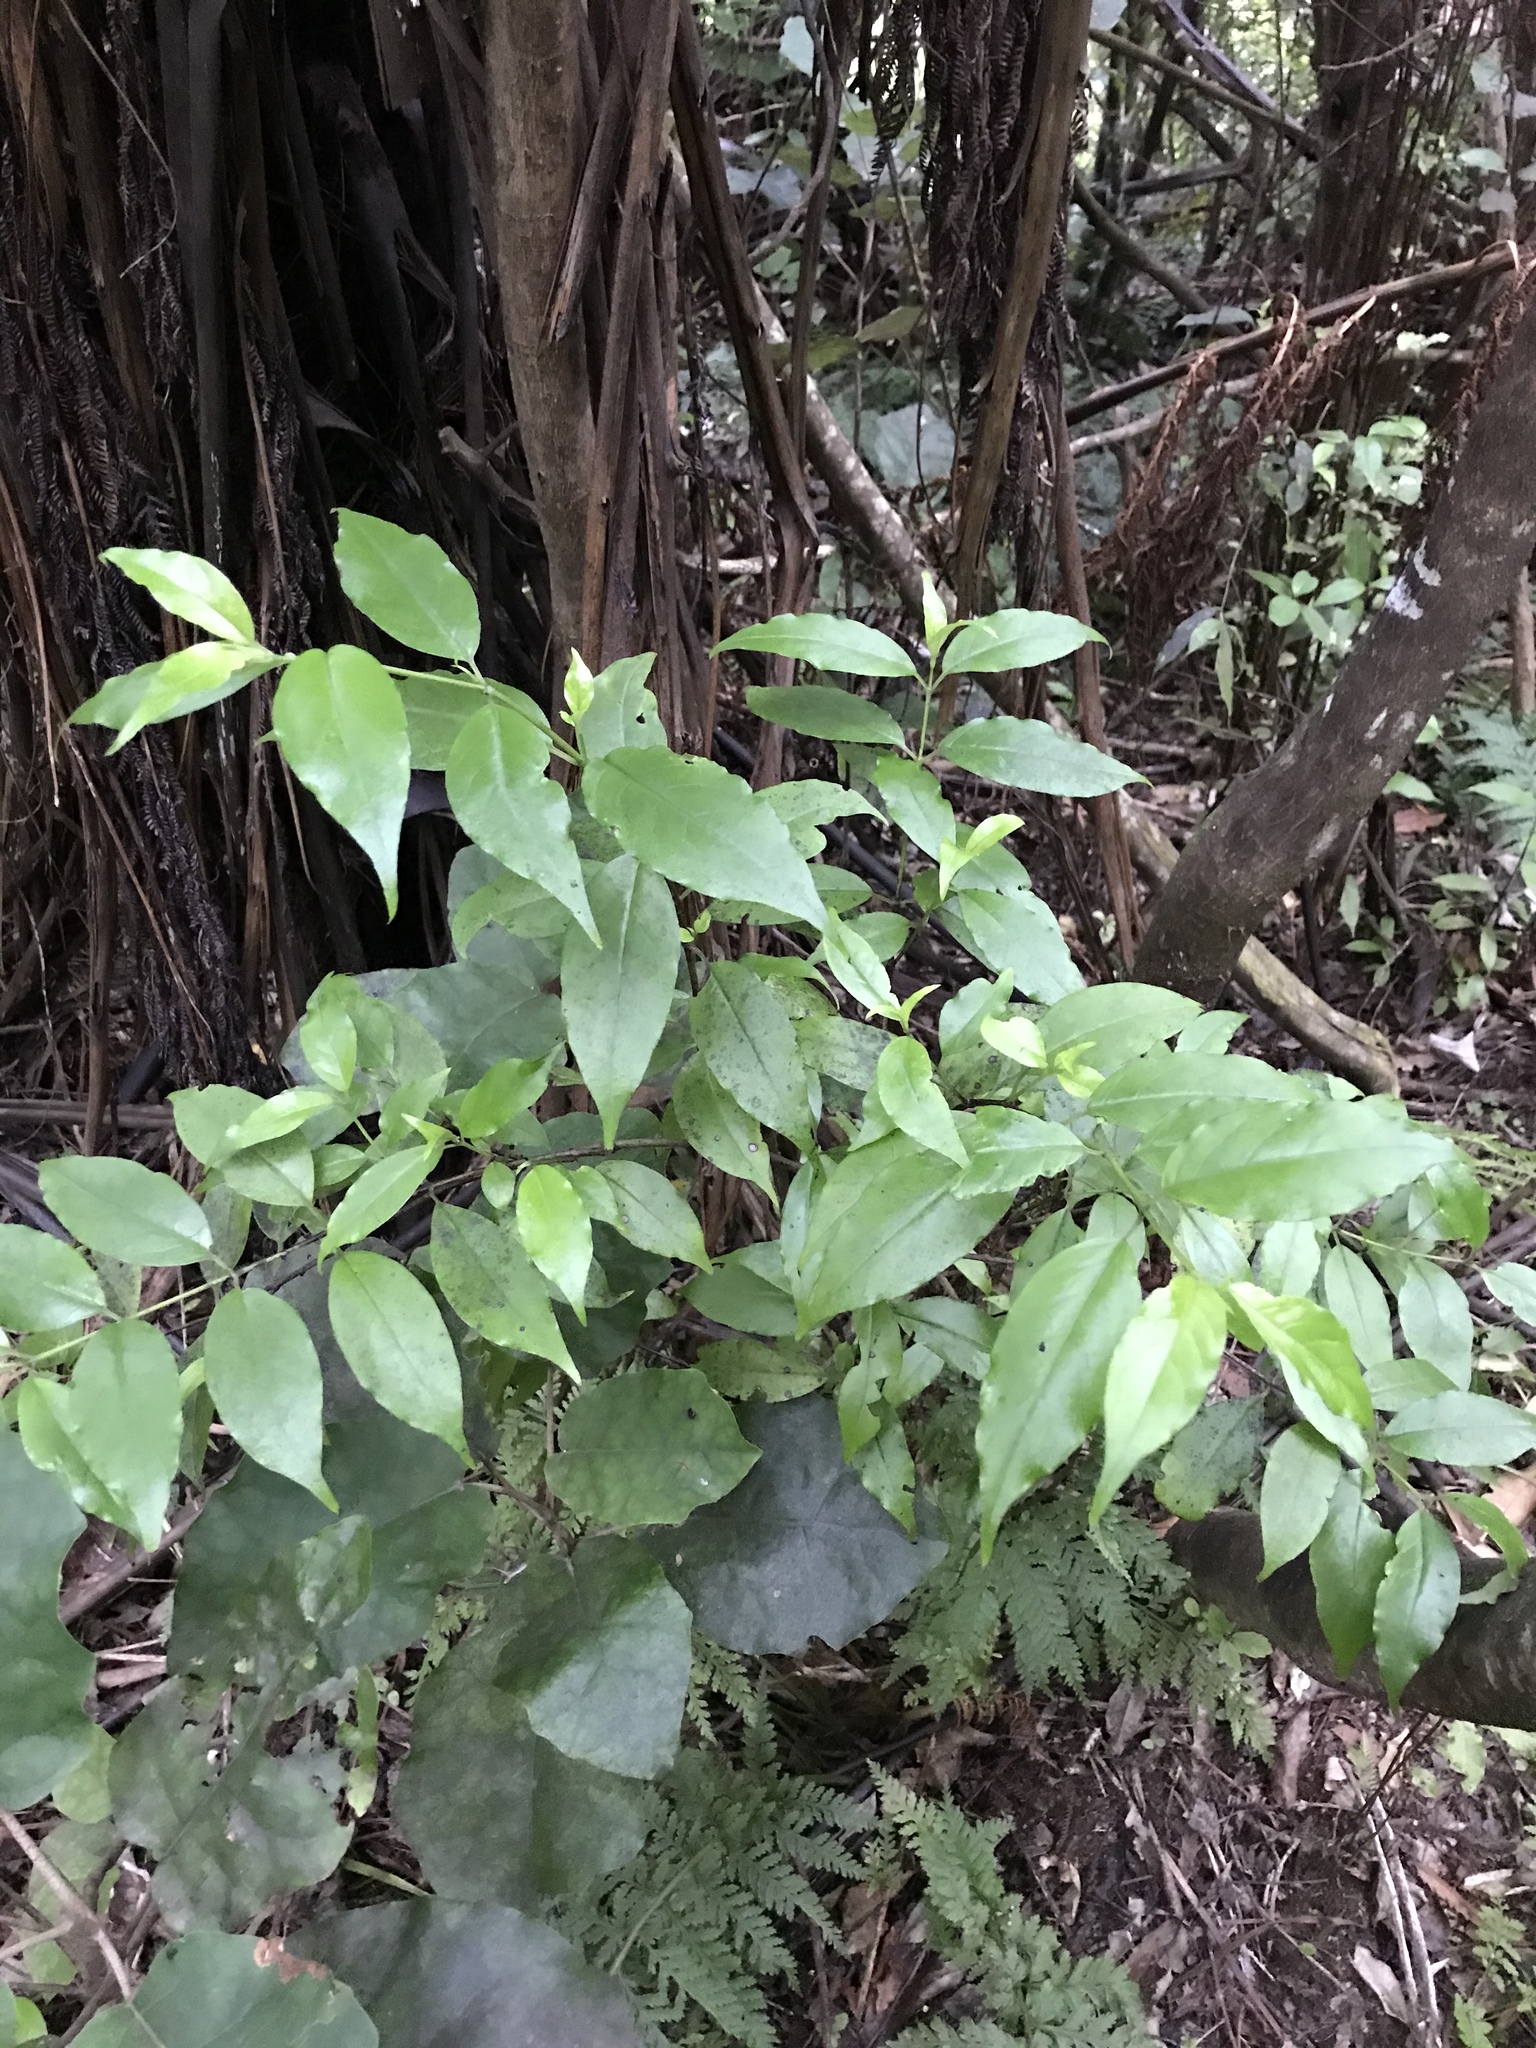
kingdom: Plantae
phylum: Tracheophyta
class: Magnoliopsida
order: Gentianales
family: Loganiaceae
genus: Geniostoma
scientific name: Geniostoma ligustrifolium
